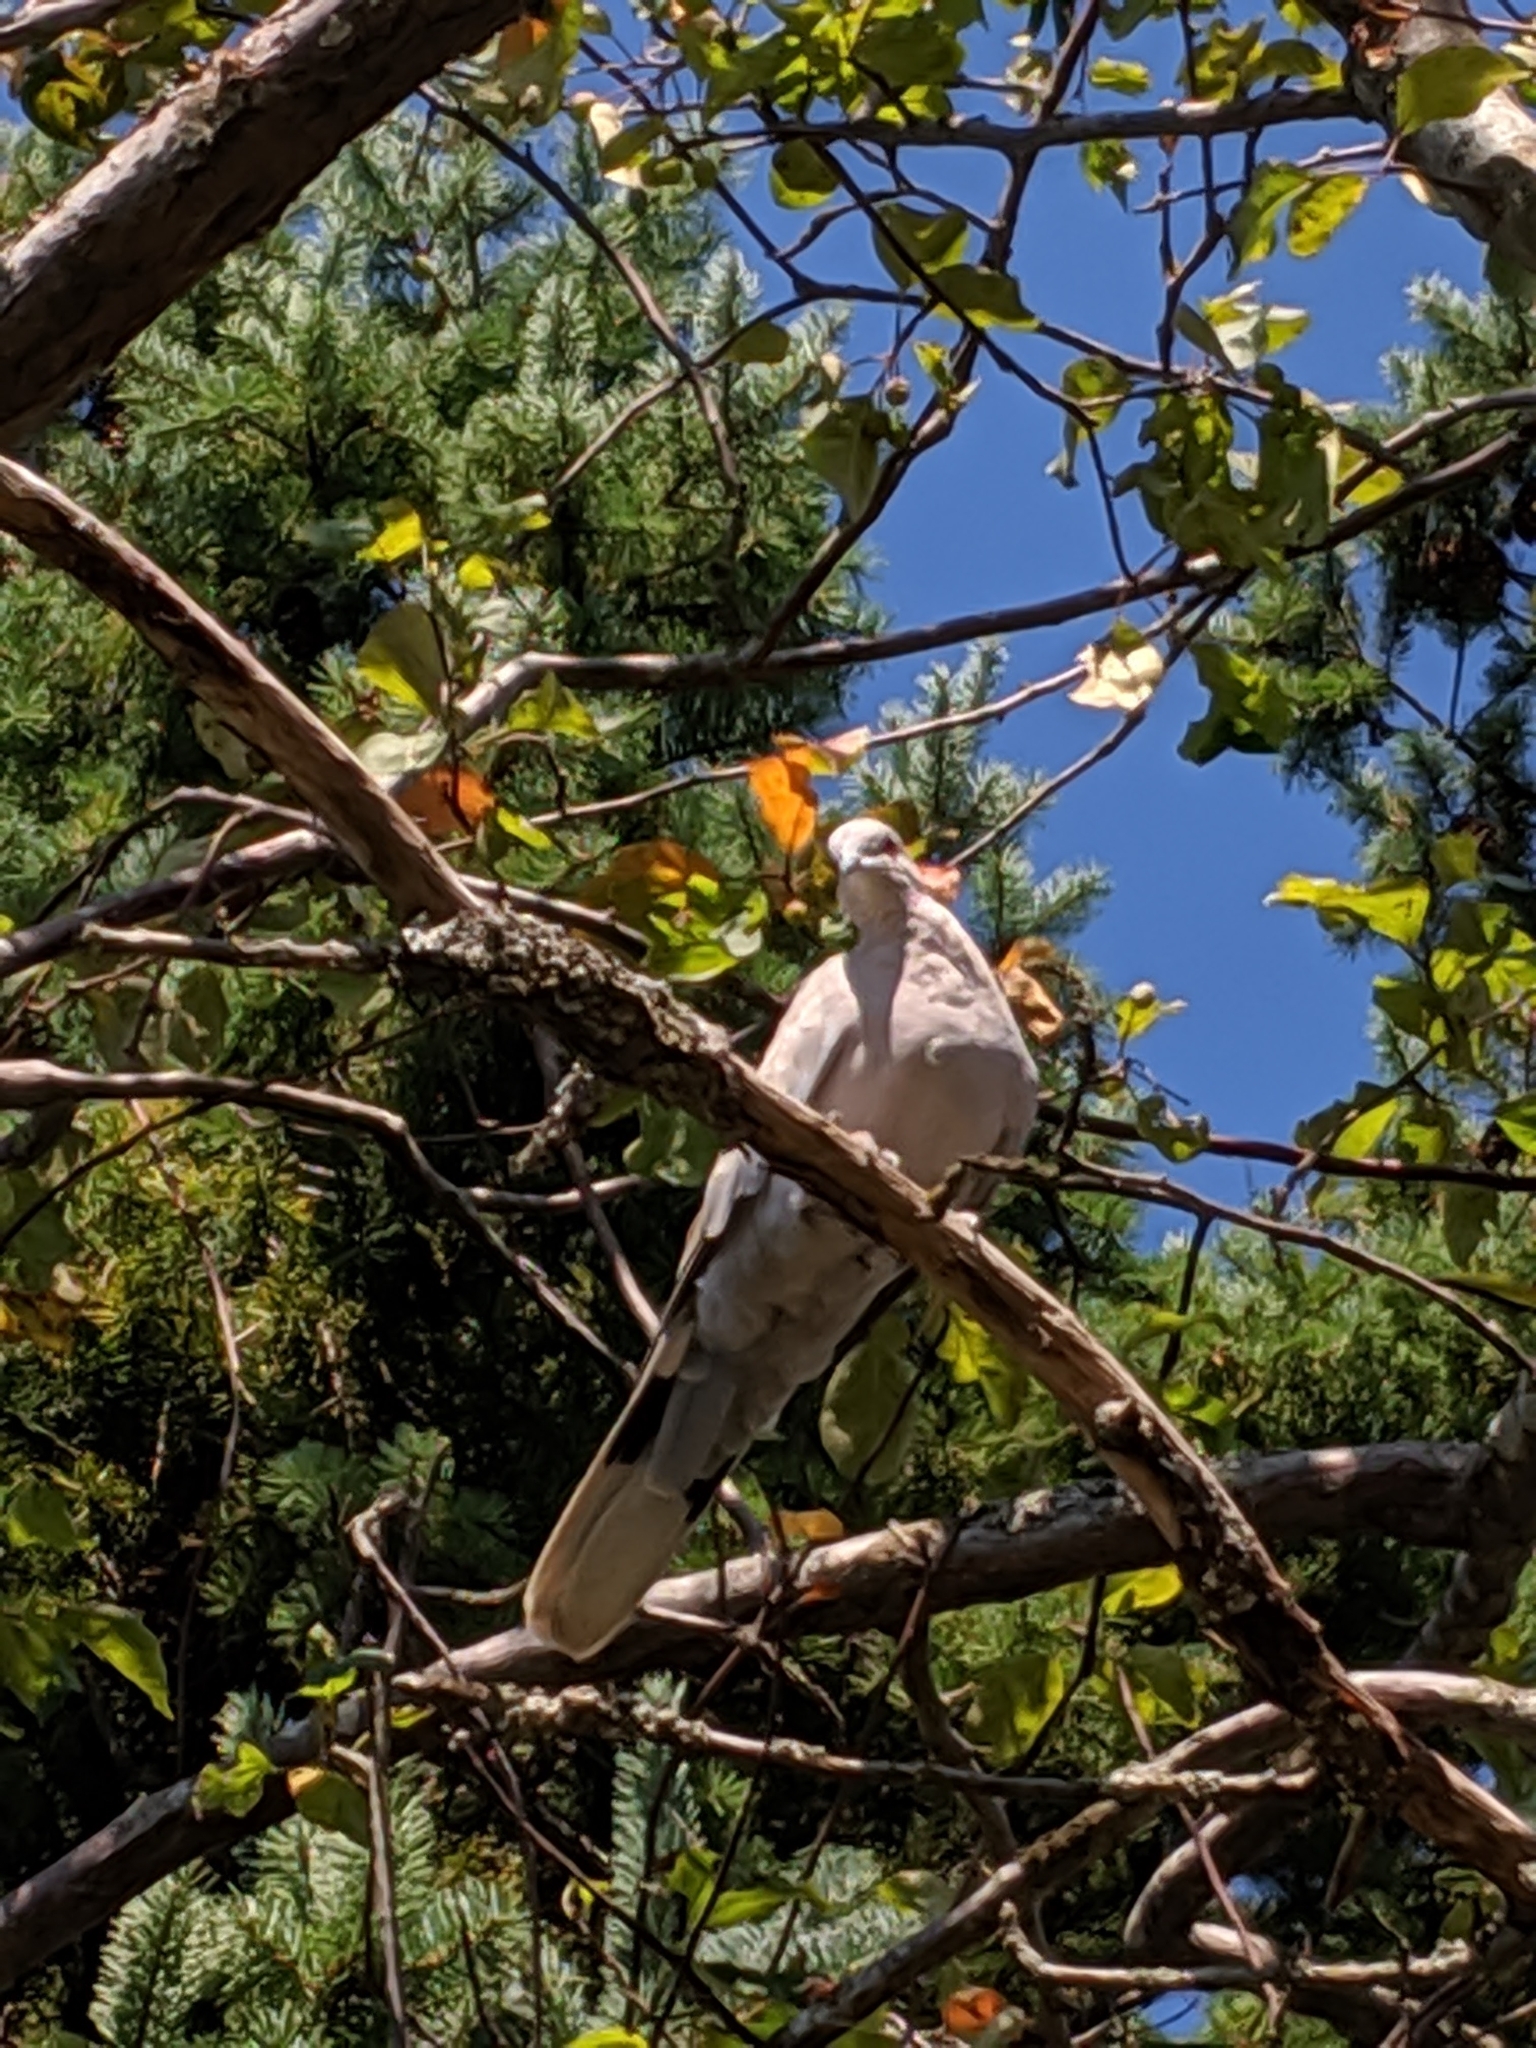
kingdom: Animalia
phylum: Chordata
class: Aves
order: Columbiformes
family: Columbidae
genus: Streptopelia
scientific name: Streptopelia decaocto
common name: Eurasian collared dove
